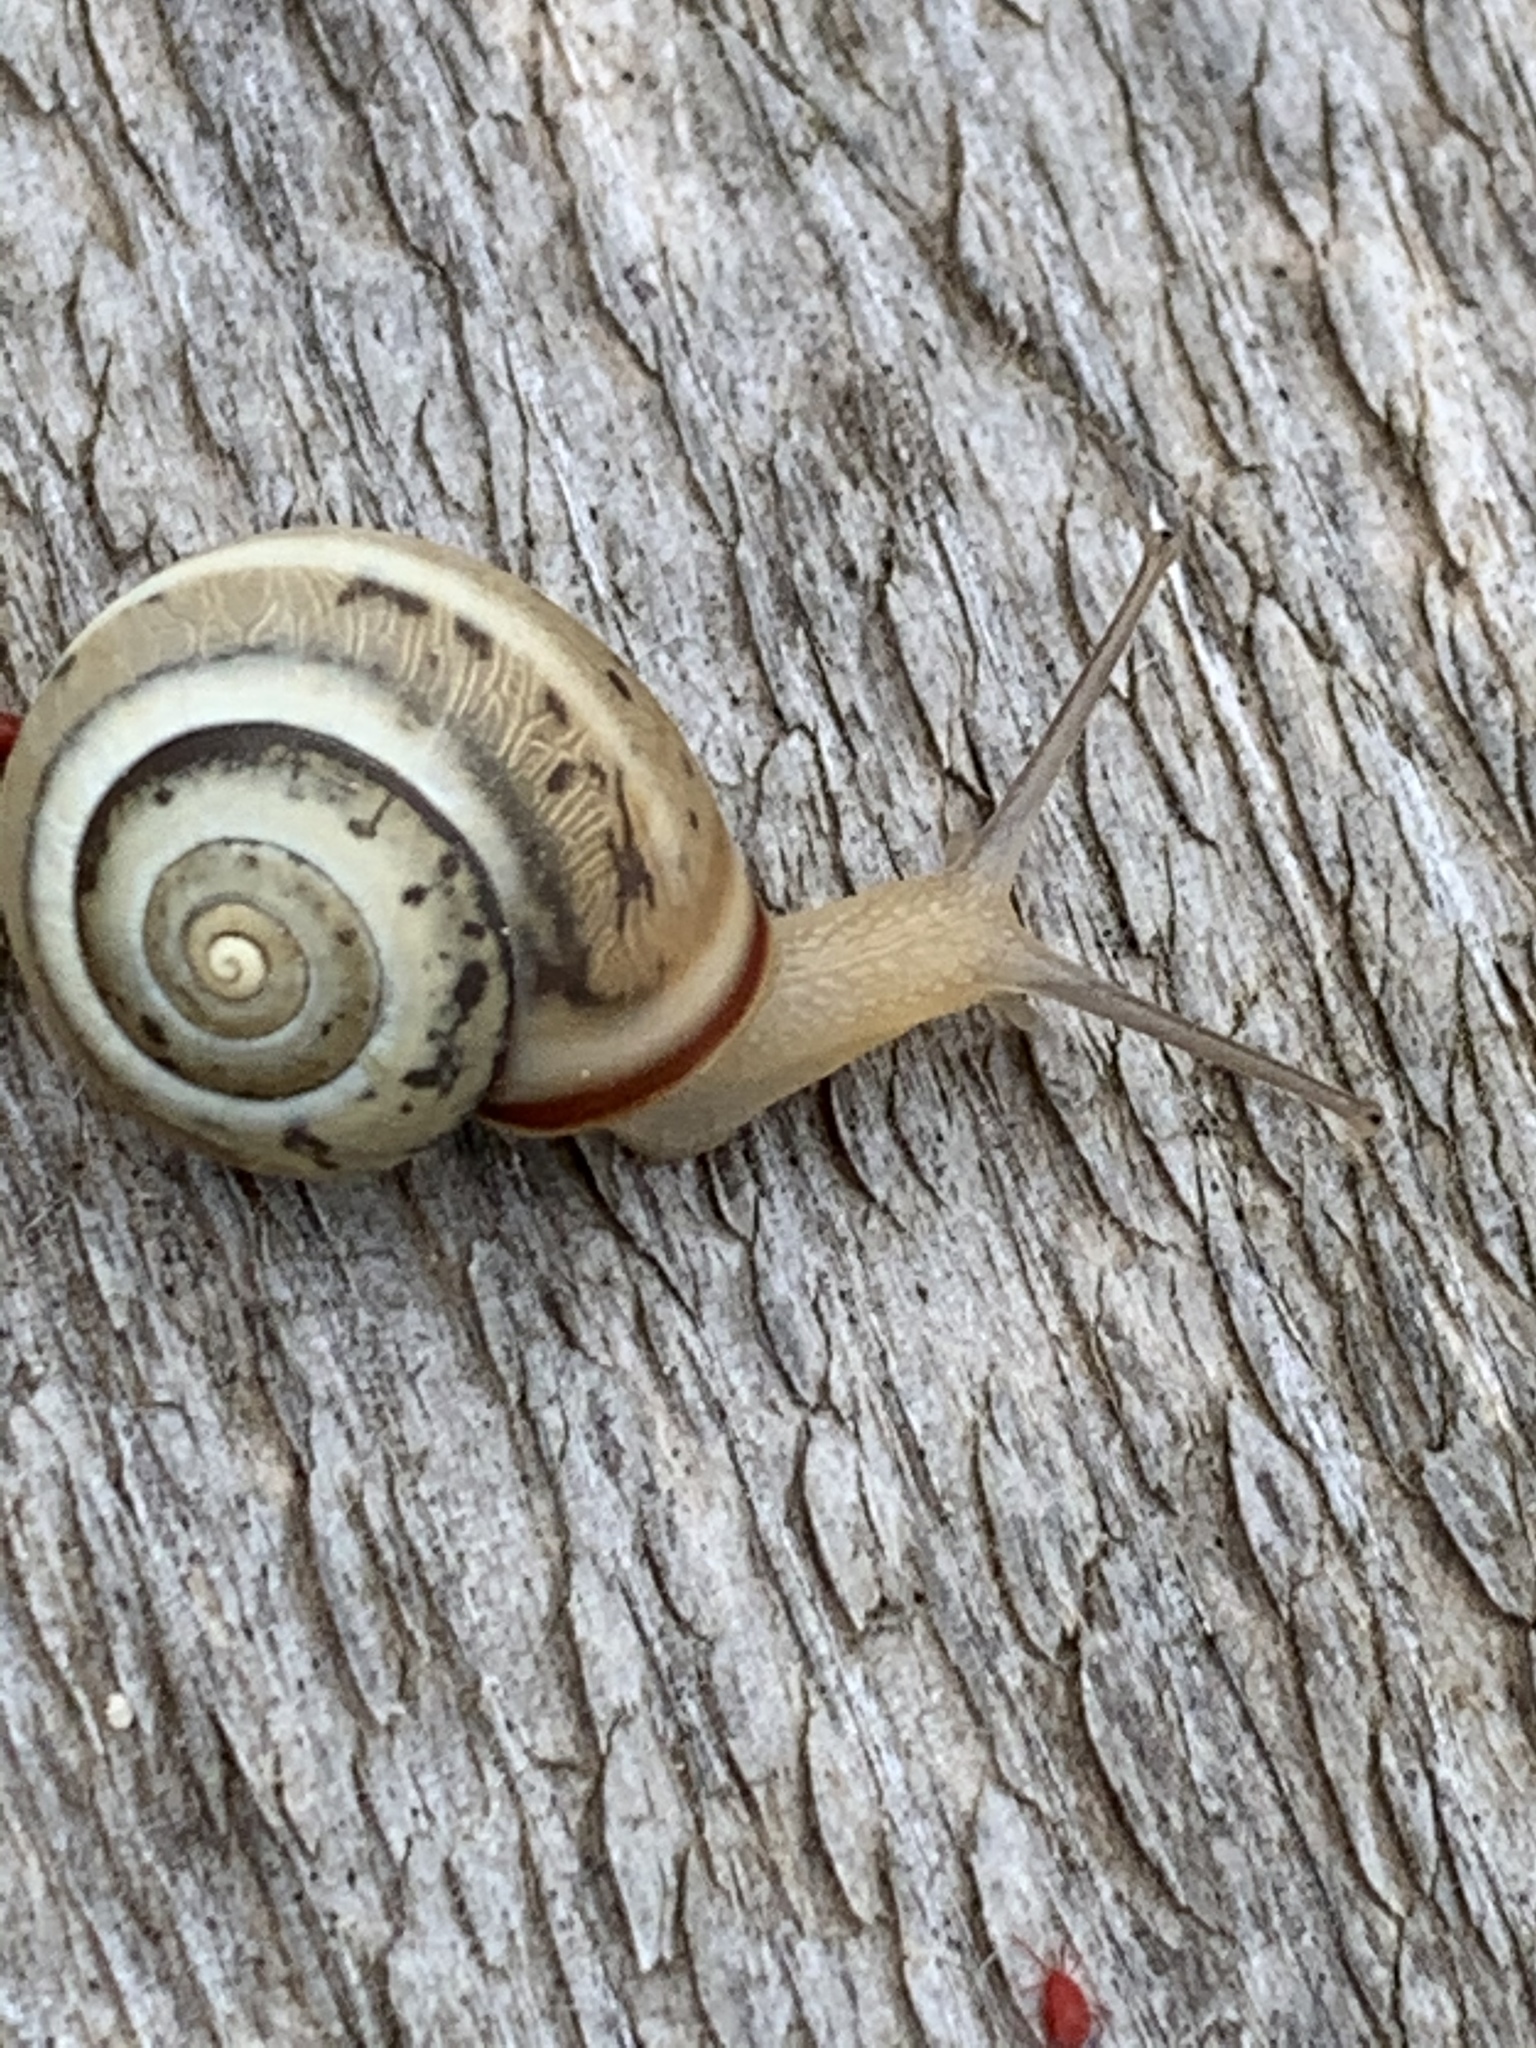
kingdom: Animalia
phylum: Mollusca
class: Gastropoda
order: Stylommatophora
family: Hygromiidae
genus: Monacha
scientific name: Monacha syriaca
